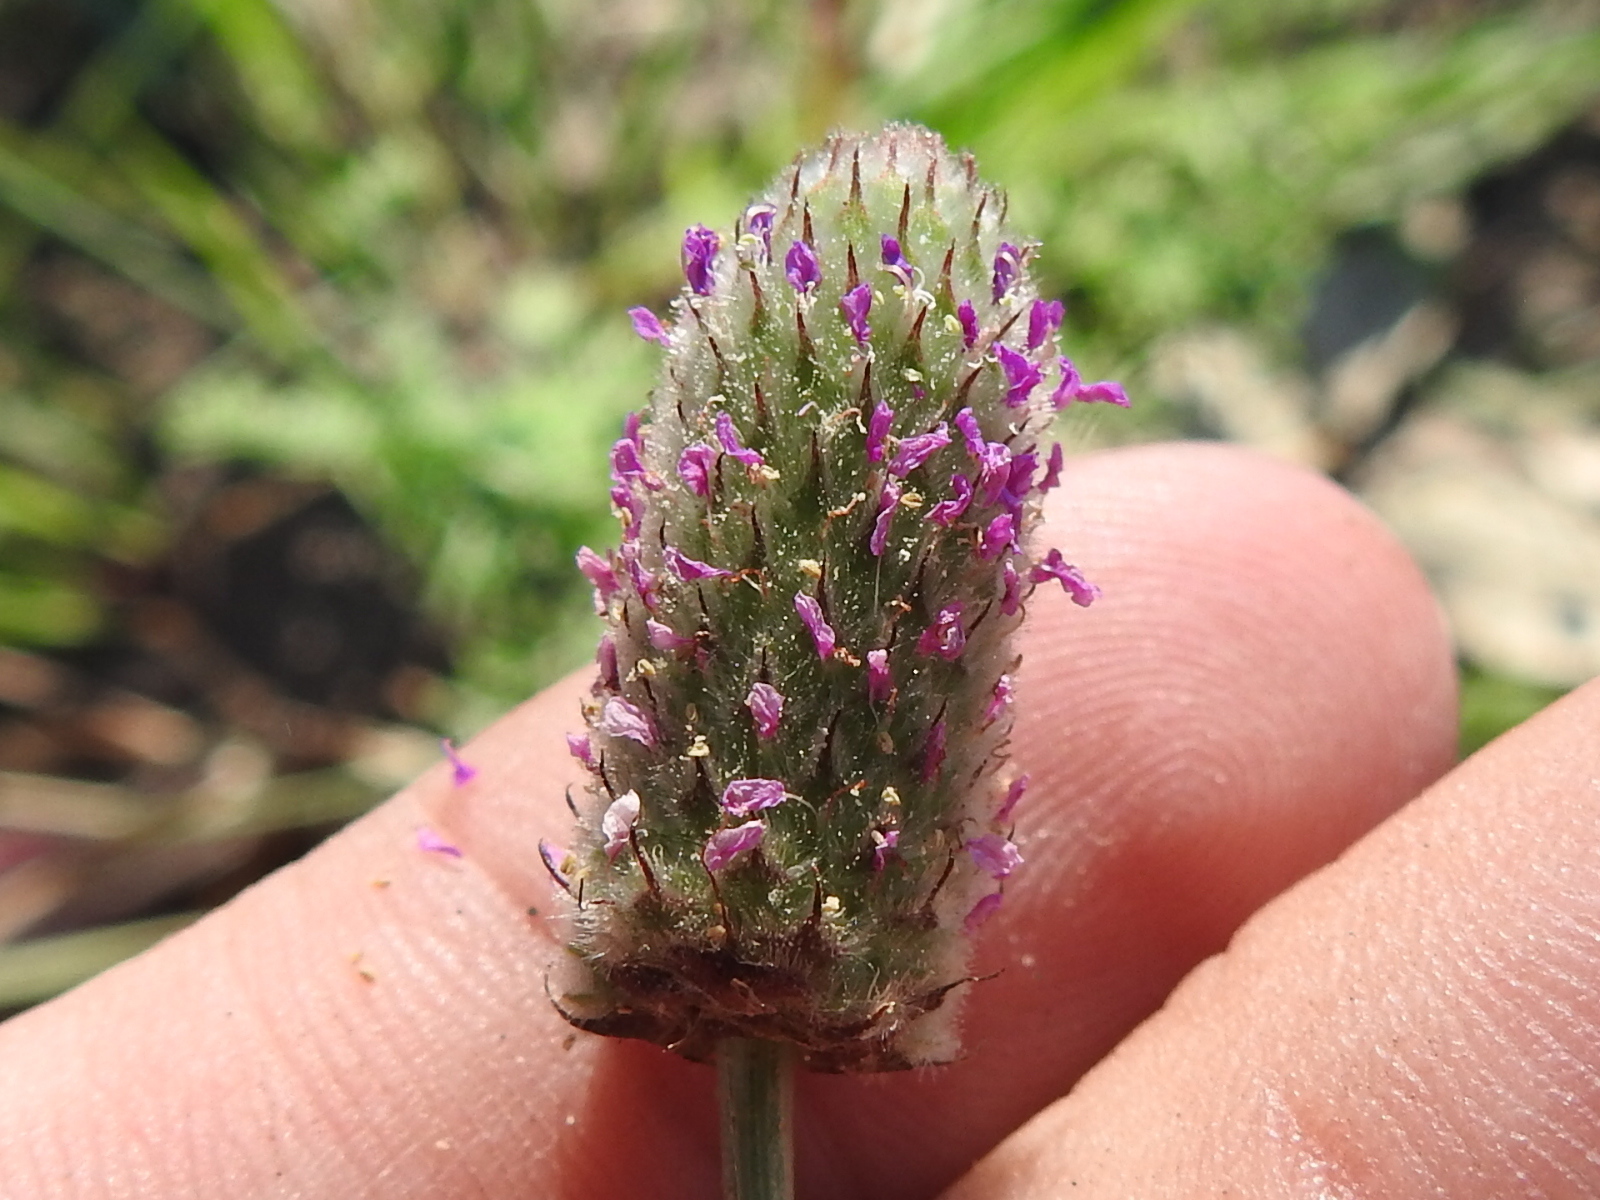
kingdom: Plantae
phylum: Tracheophyta
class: Magnoliopsida
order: Fabales
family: Fabaceae
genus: Dalea
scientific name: Dalea emarginata
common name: Wedgeleaf prairie clover
